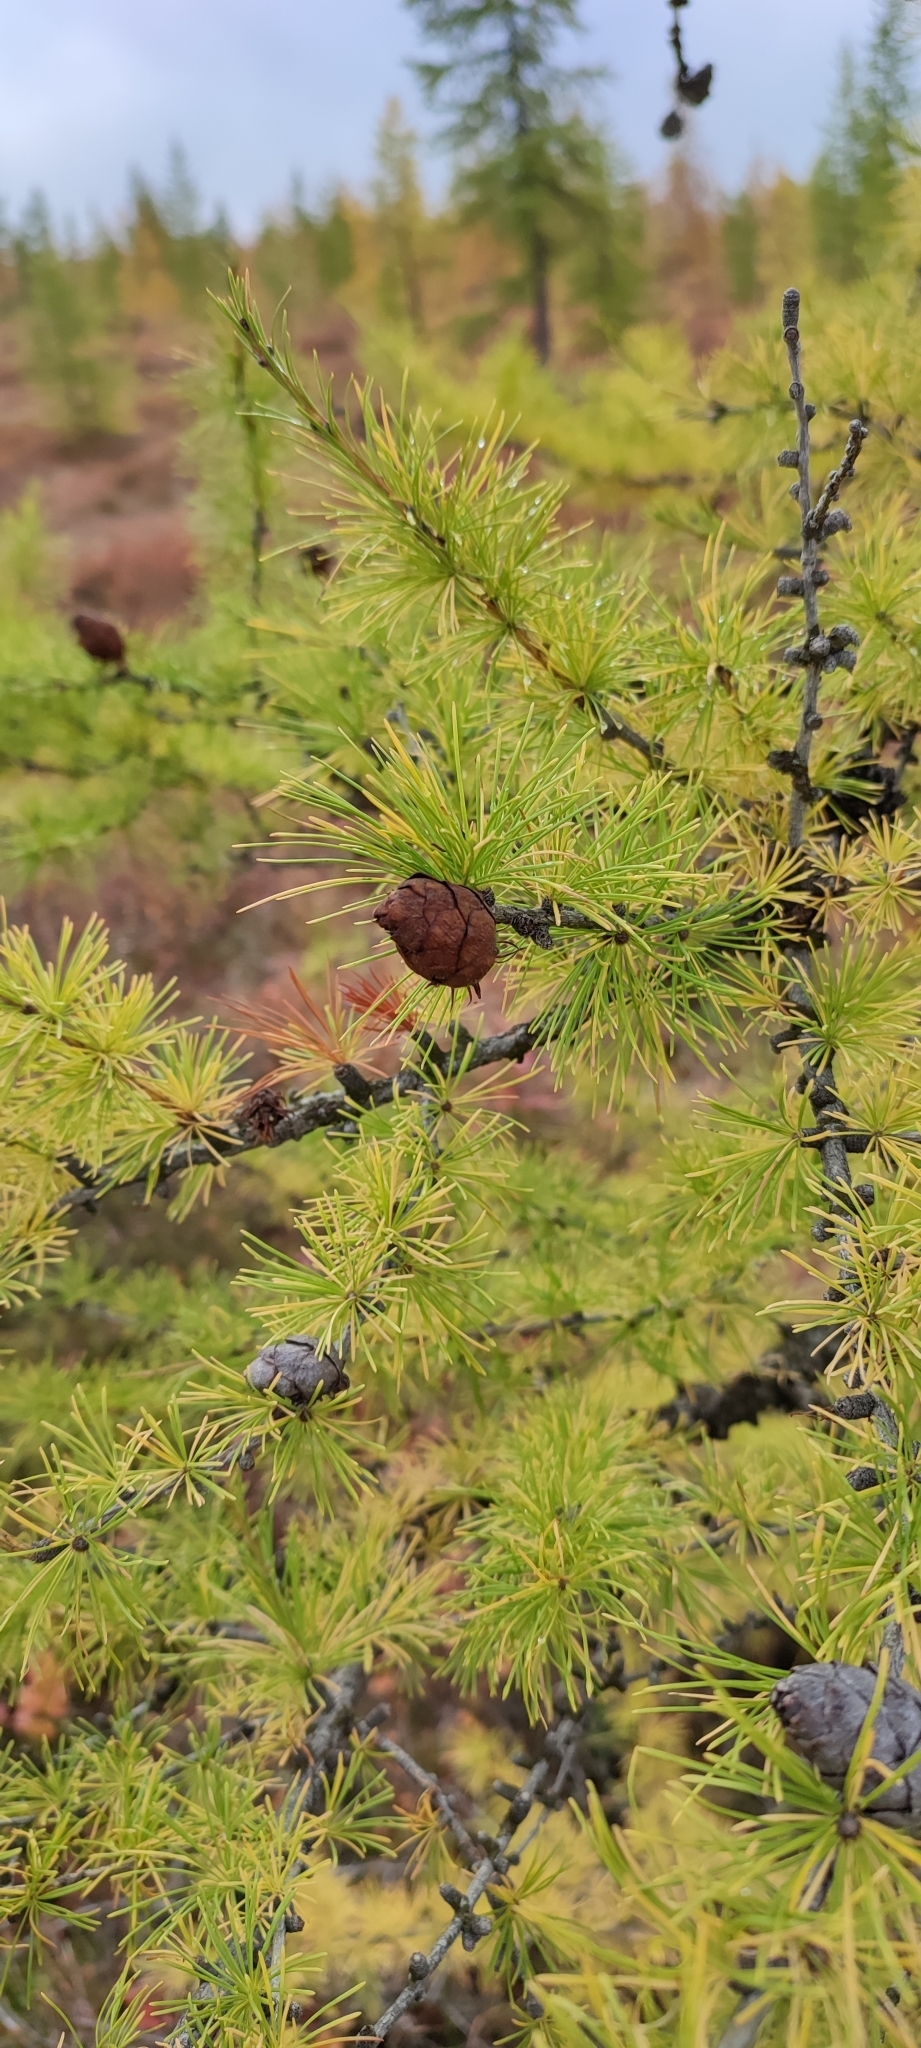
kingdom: Plantae
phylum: Tracheophyta
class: Pinopsida
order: Pinales
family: Pinaceae
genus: Larix
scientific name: Larix sibirica
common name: Siberian larch
